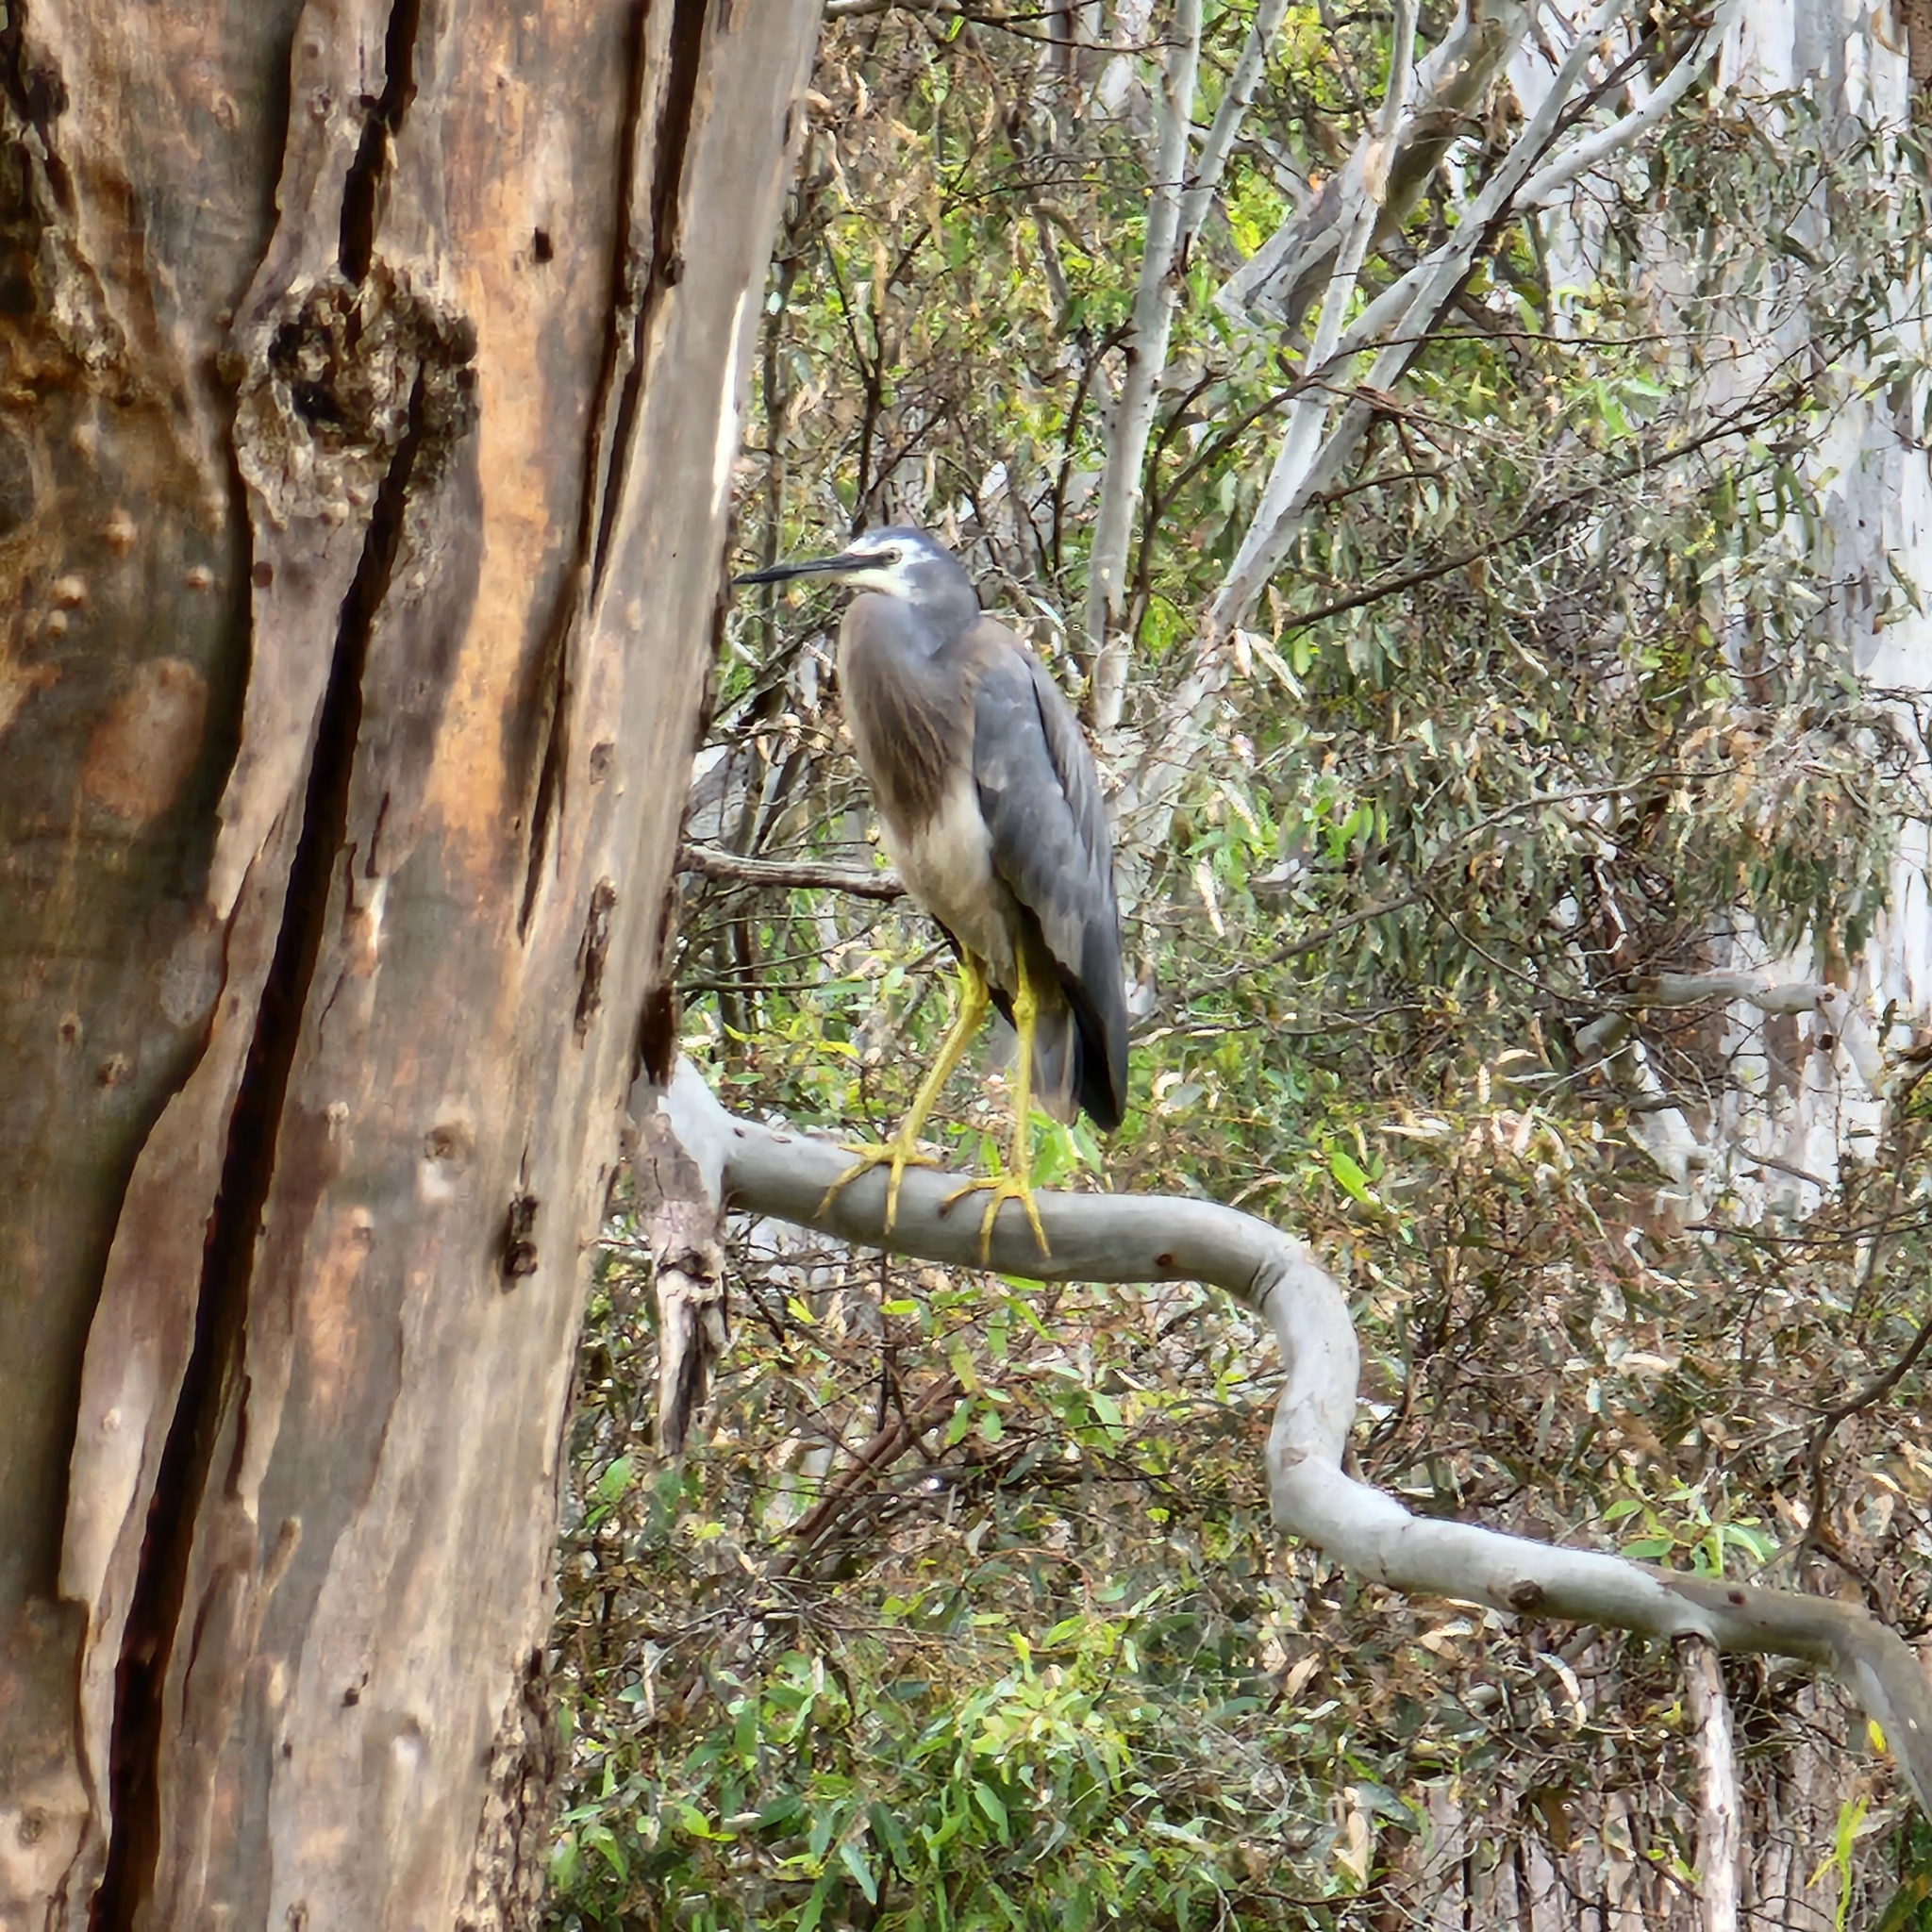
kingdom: Animalia
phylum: Chordata
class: Aves
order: Pelecaniformes
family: Ardeidae
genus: Egretta
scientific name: Egretta novaehollandiae
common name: White-faced heron
